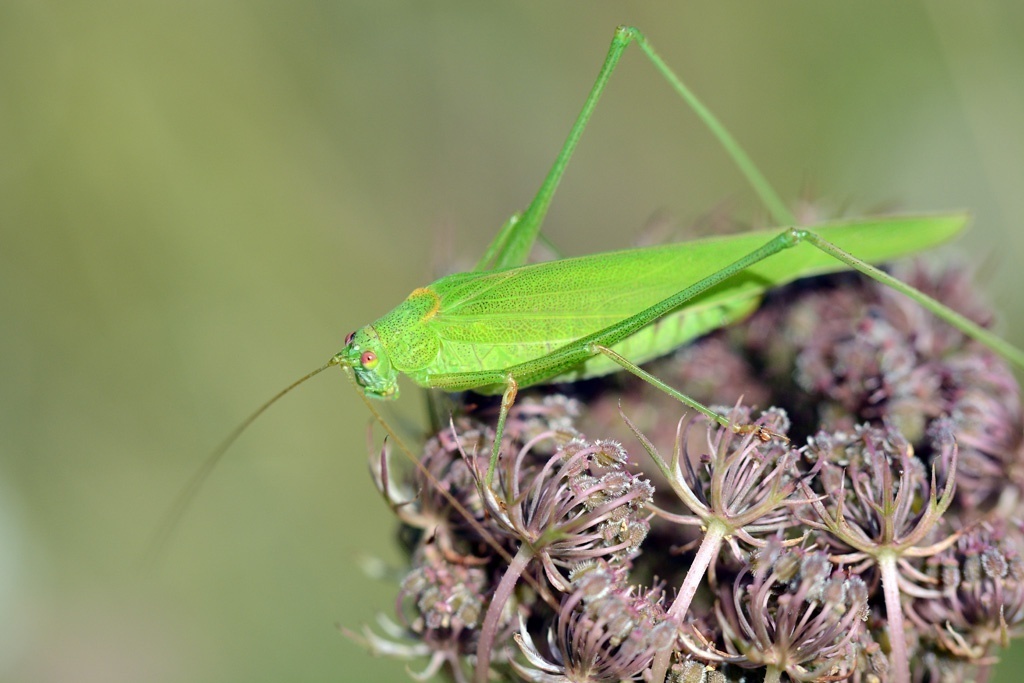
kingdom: Animalia
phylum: Arthropoda
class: Insecta
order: Orthoptera
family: Tettigoniidae
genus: Phaneroptera
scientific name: Phaneroptera falcata
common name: Sickle-bearing bush-cricket
